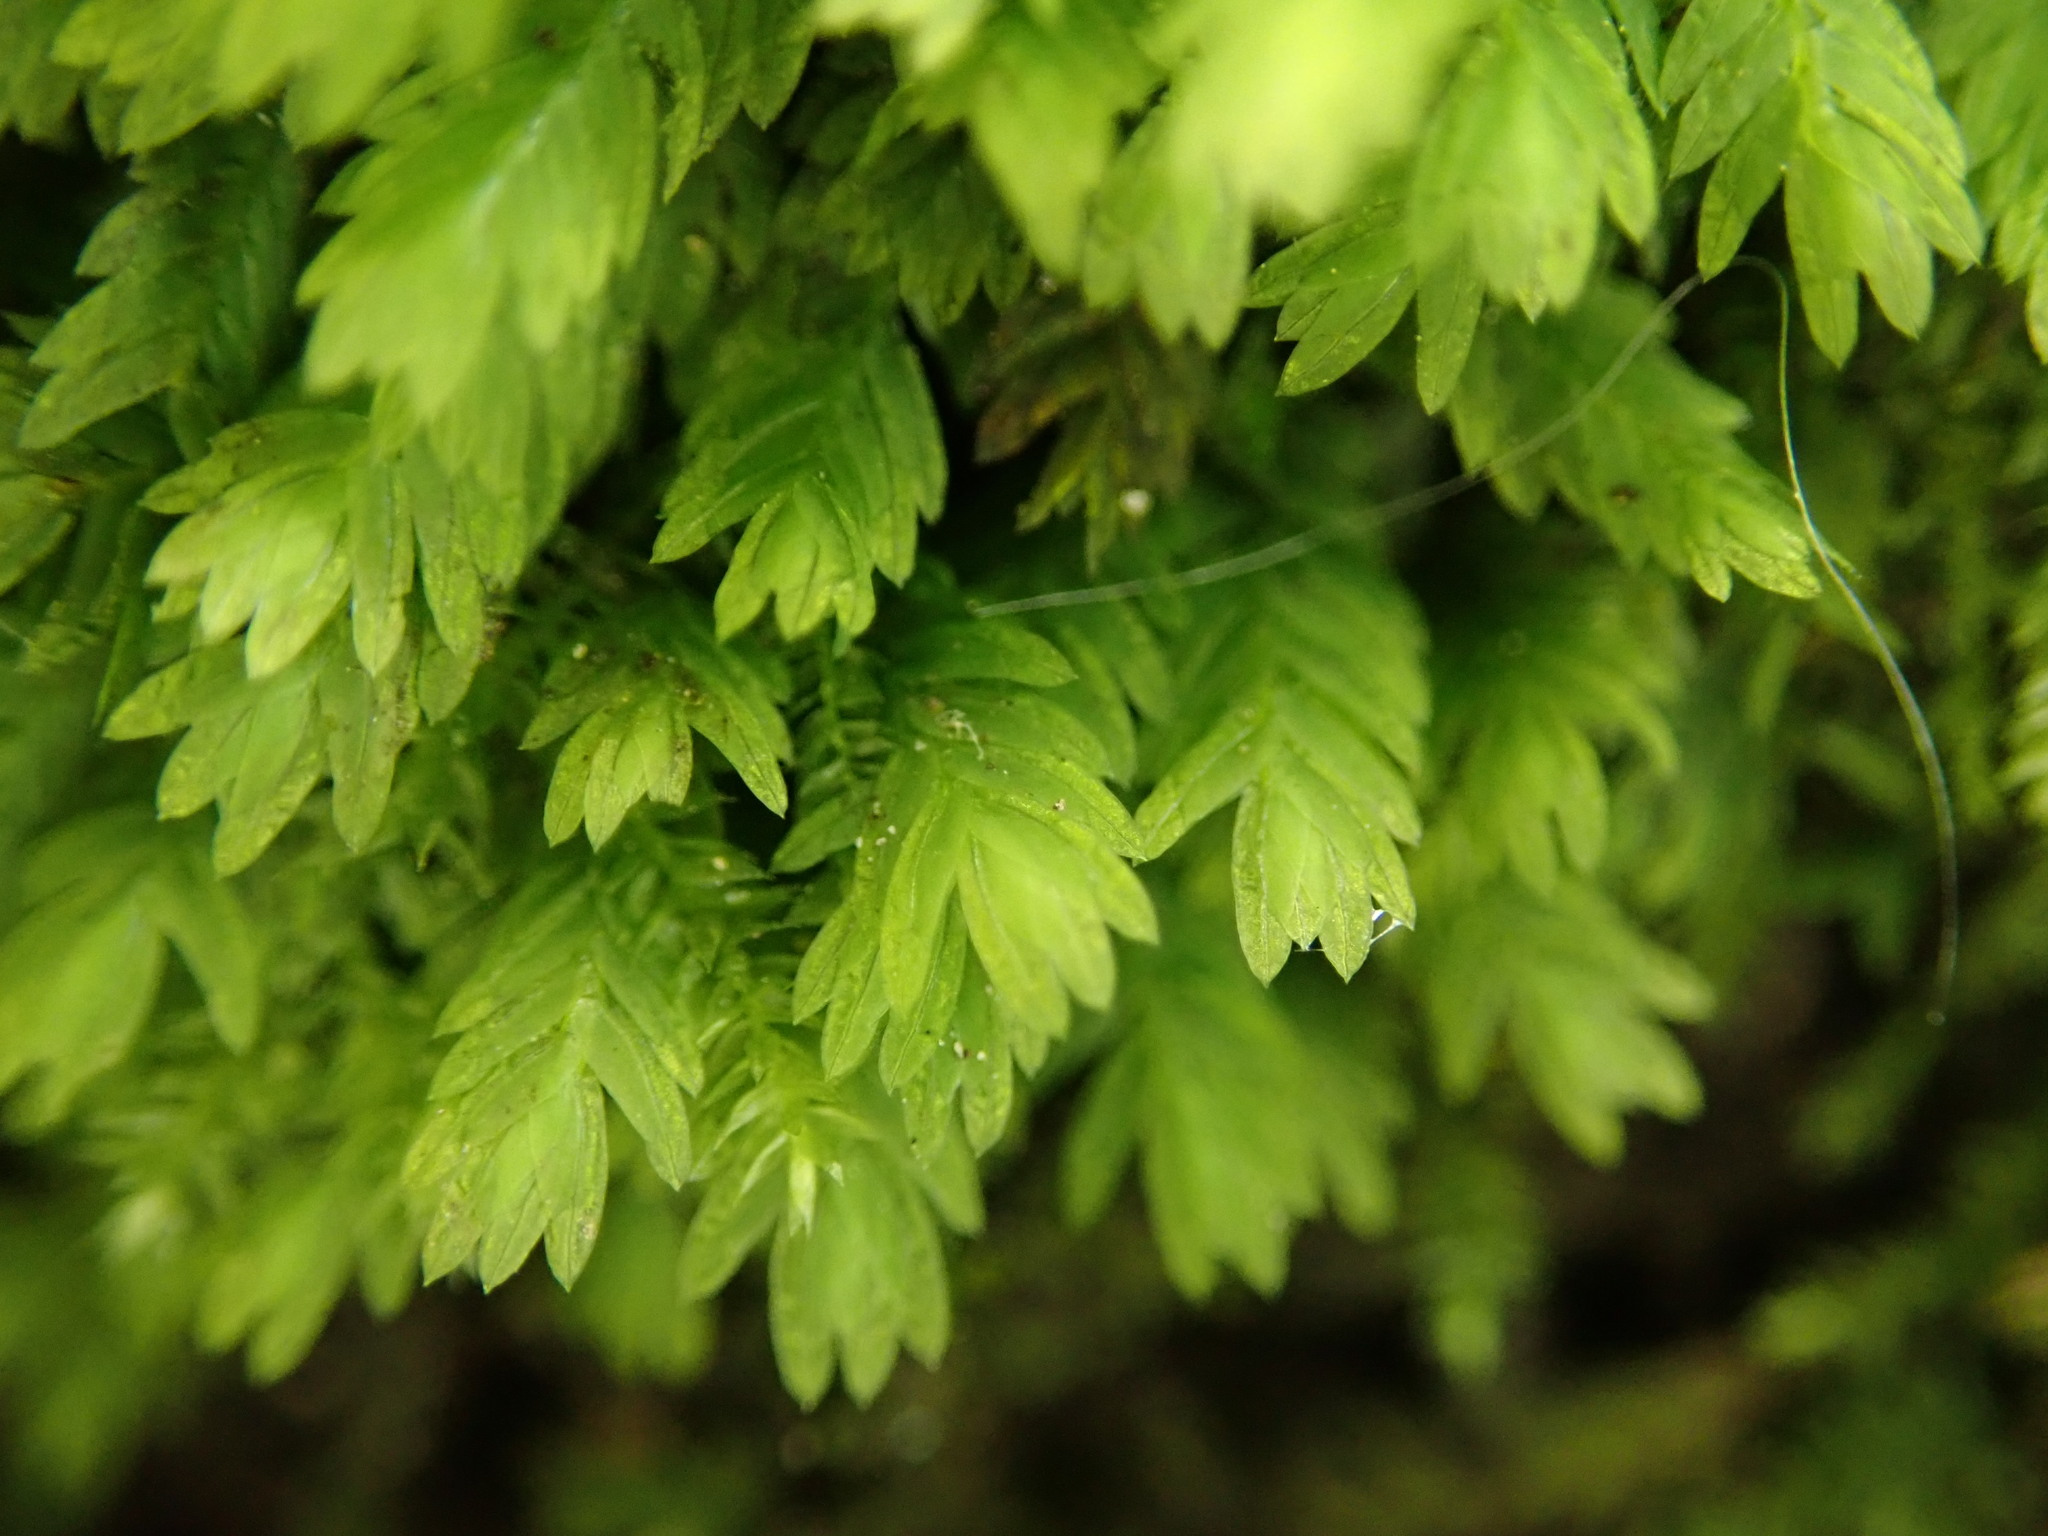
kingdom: Plantae
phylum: Bryophyta
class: Bryopsida
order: Dicranales
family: Fissidentaceae
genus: Fissidens
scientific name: Fissidens taxifolius
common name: Yew-leaved pocket moss
